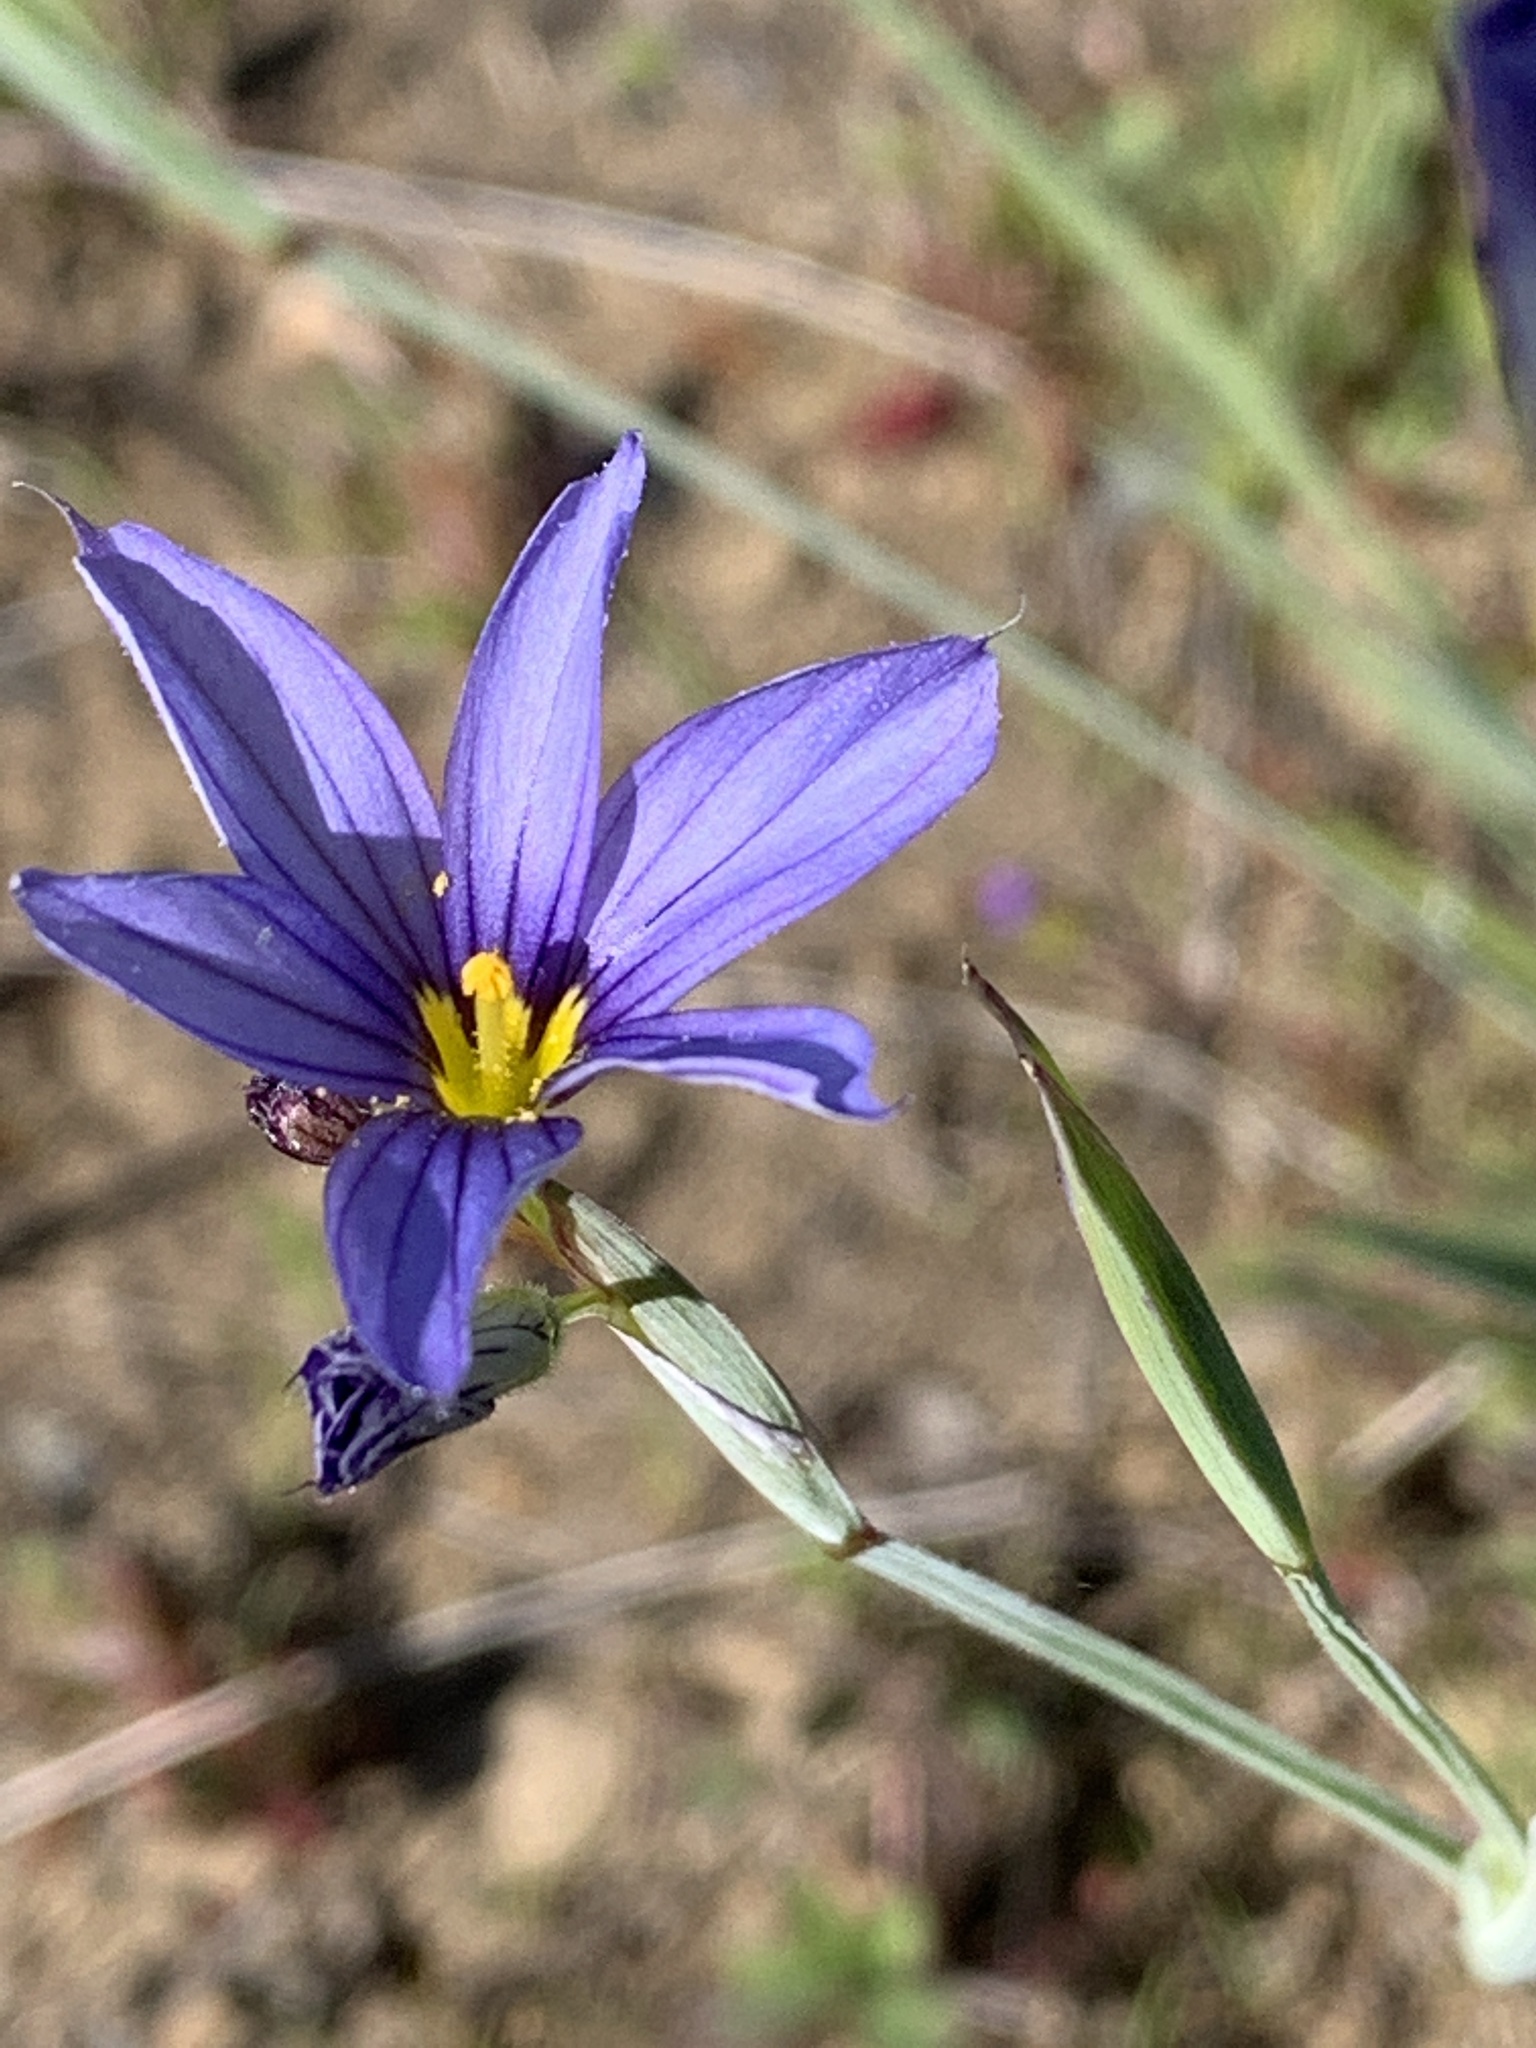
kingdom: Plantae
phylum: Tracheophyta
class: Liliopsida
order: Asparagales
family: Iridaceae
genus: Sisyrinchium
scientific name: Sisyrinchium bellum
